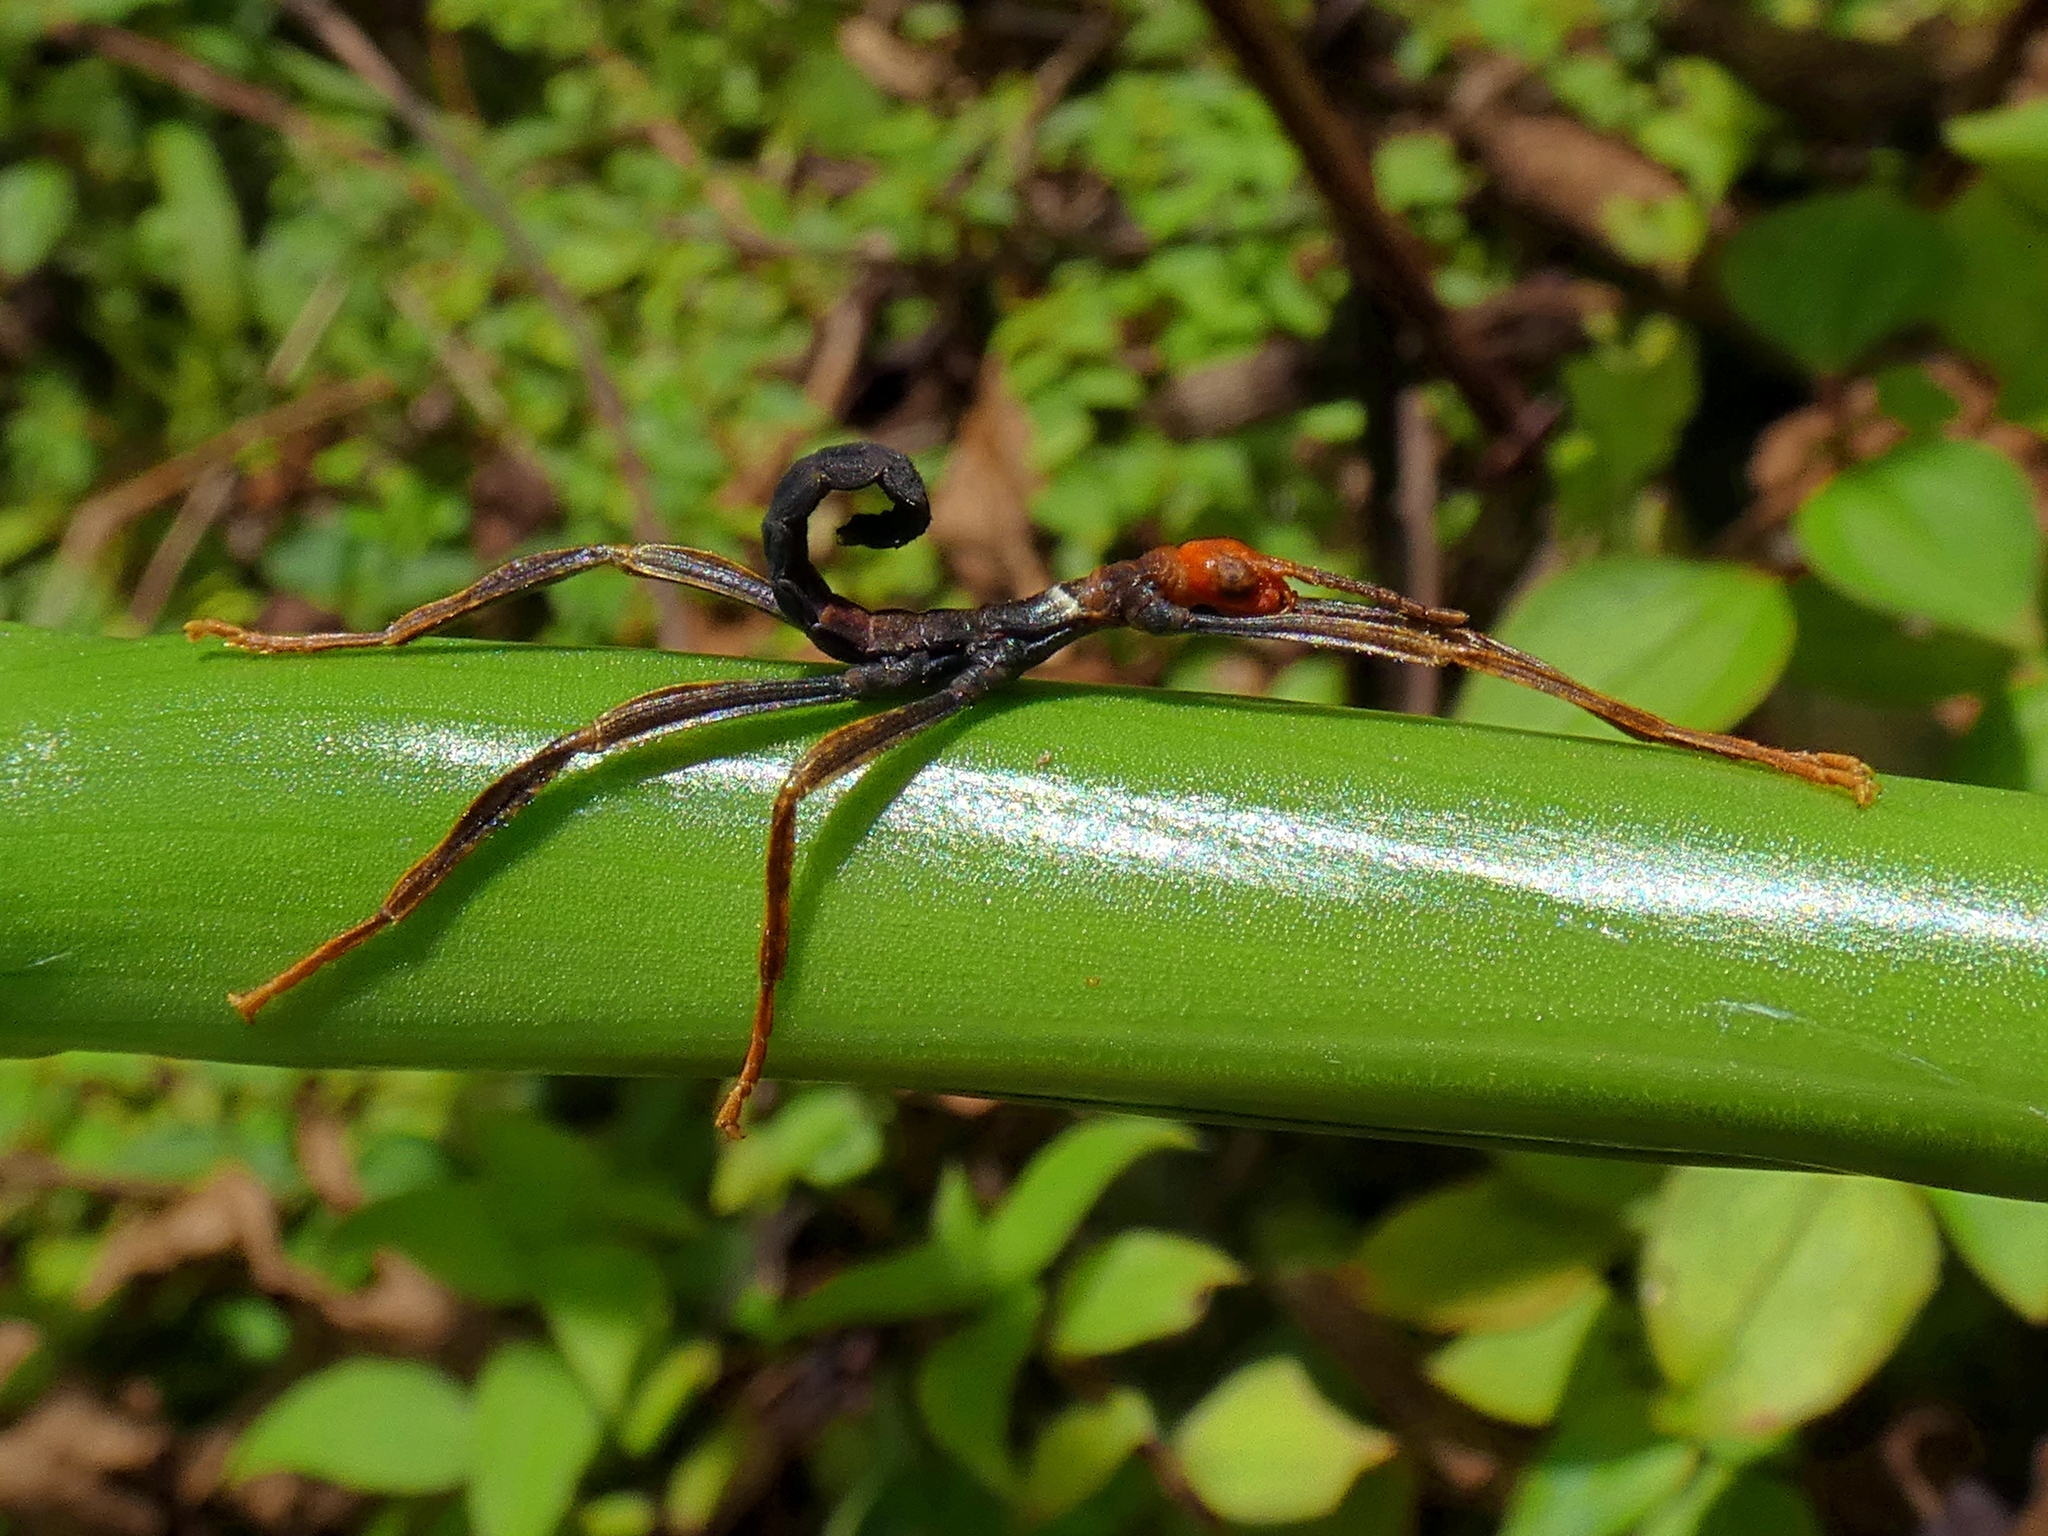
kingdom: Animalia
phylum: Arthropoda
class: Insecta
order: Phasmida
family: Phasmatidae
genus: Extatosoma
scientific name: Extatosoma tiaratum
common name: Macleay's spectre
